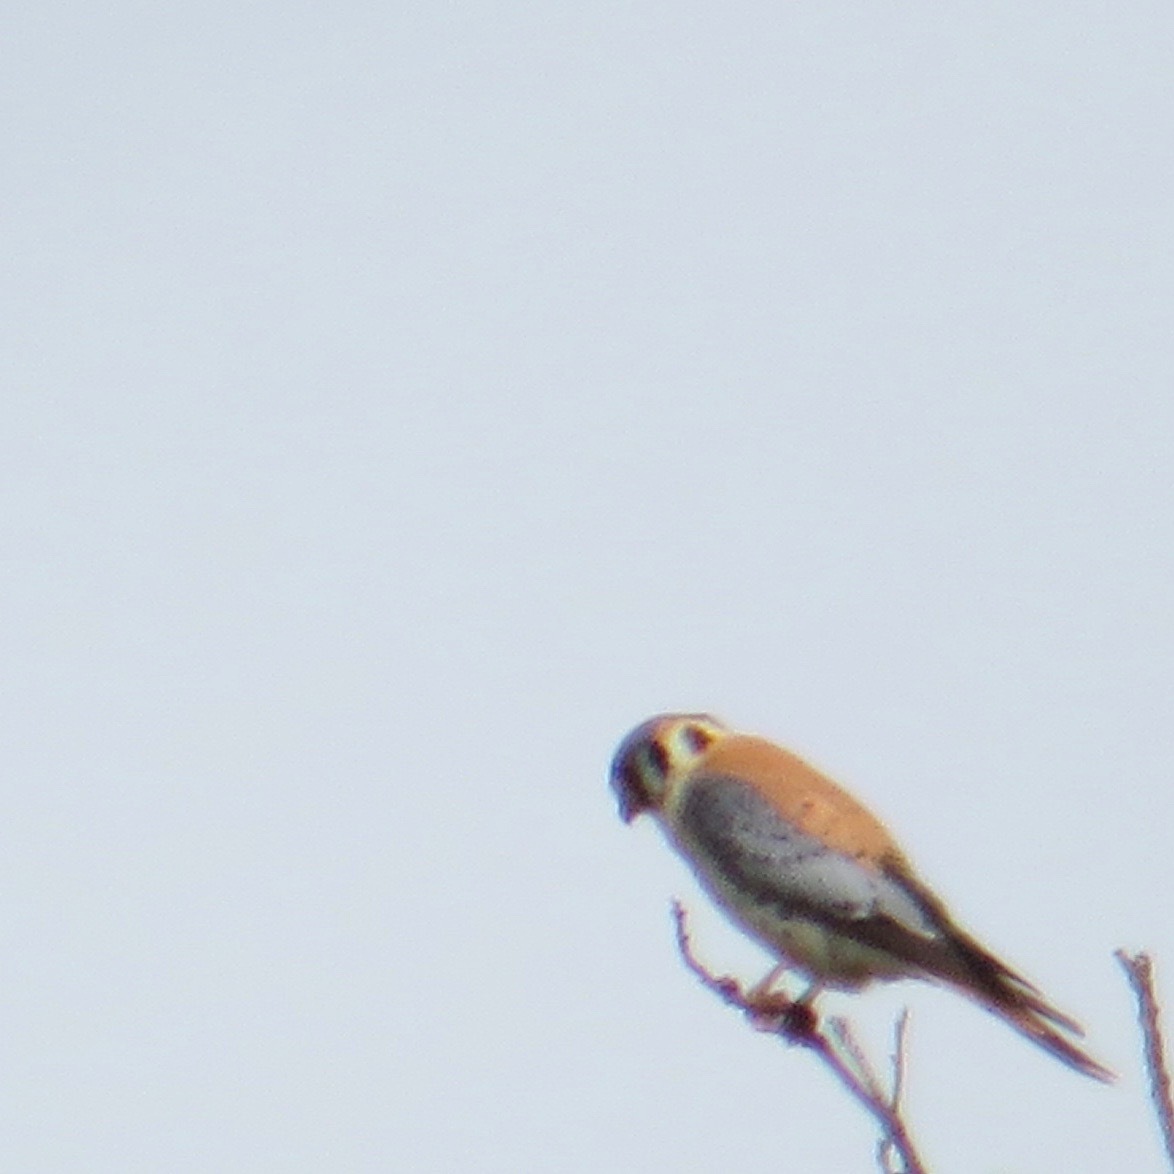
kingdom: Animalia
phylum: Chordata
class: Aves
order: Falconiformes
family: Falconidae
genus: Falco
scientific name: Falco sparverius
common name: American kestrel
